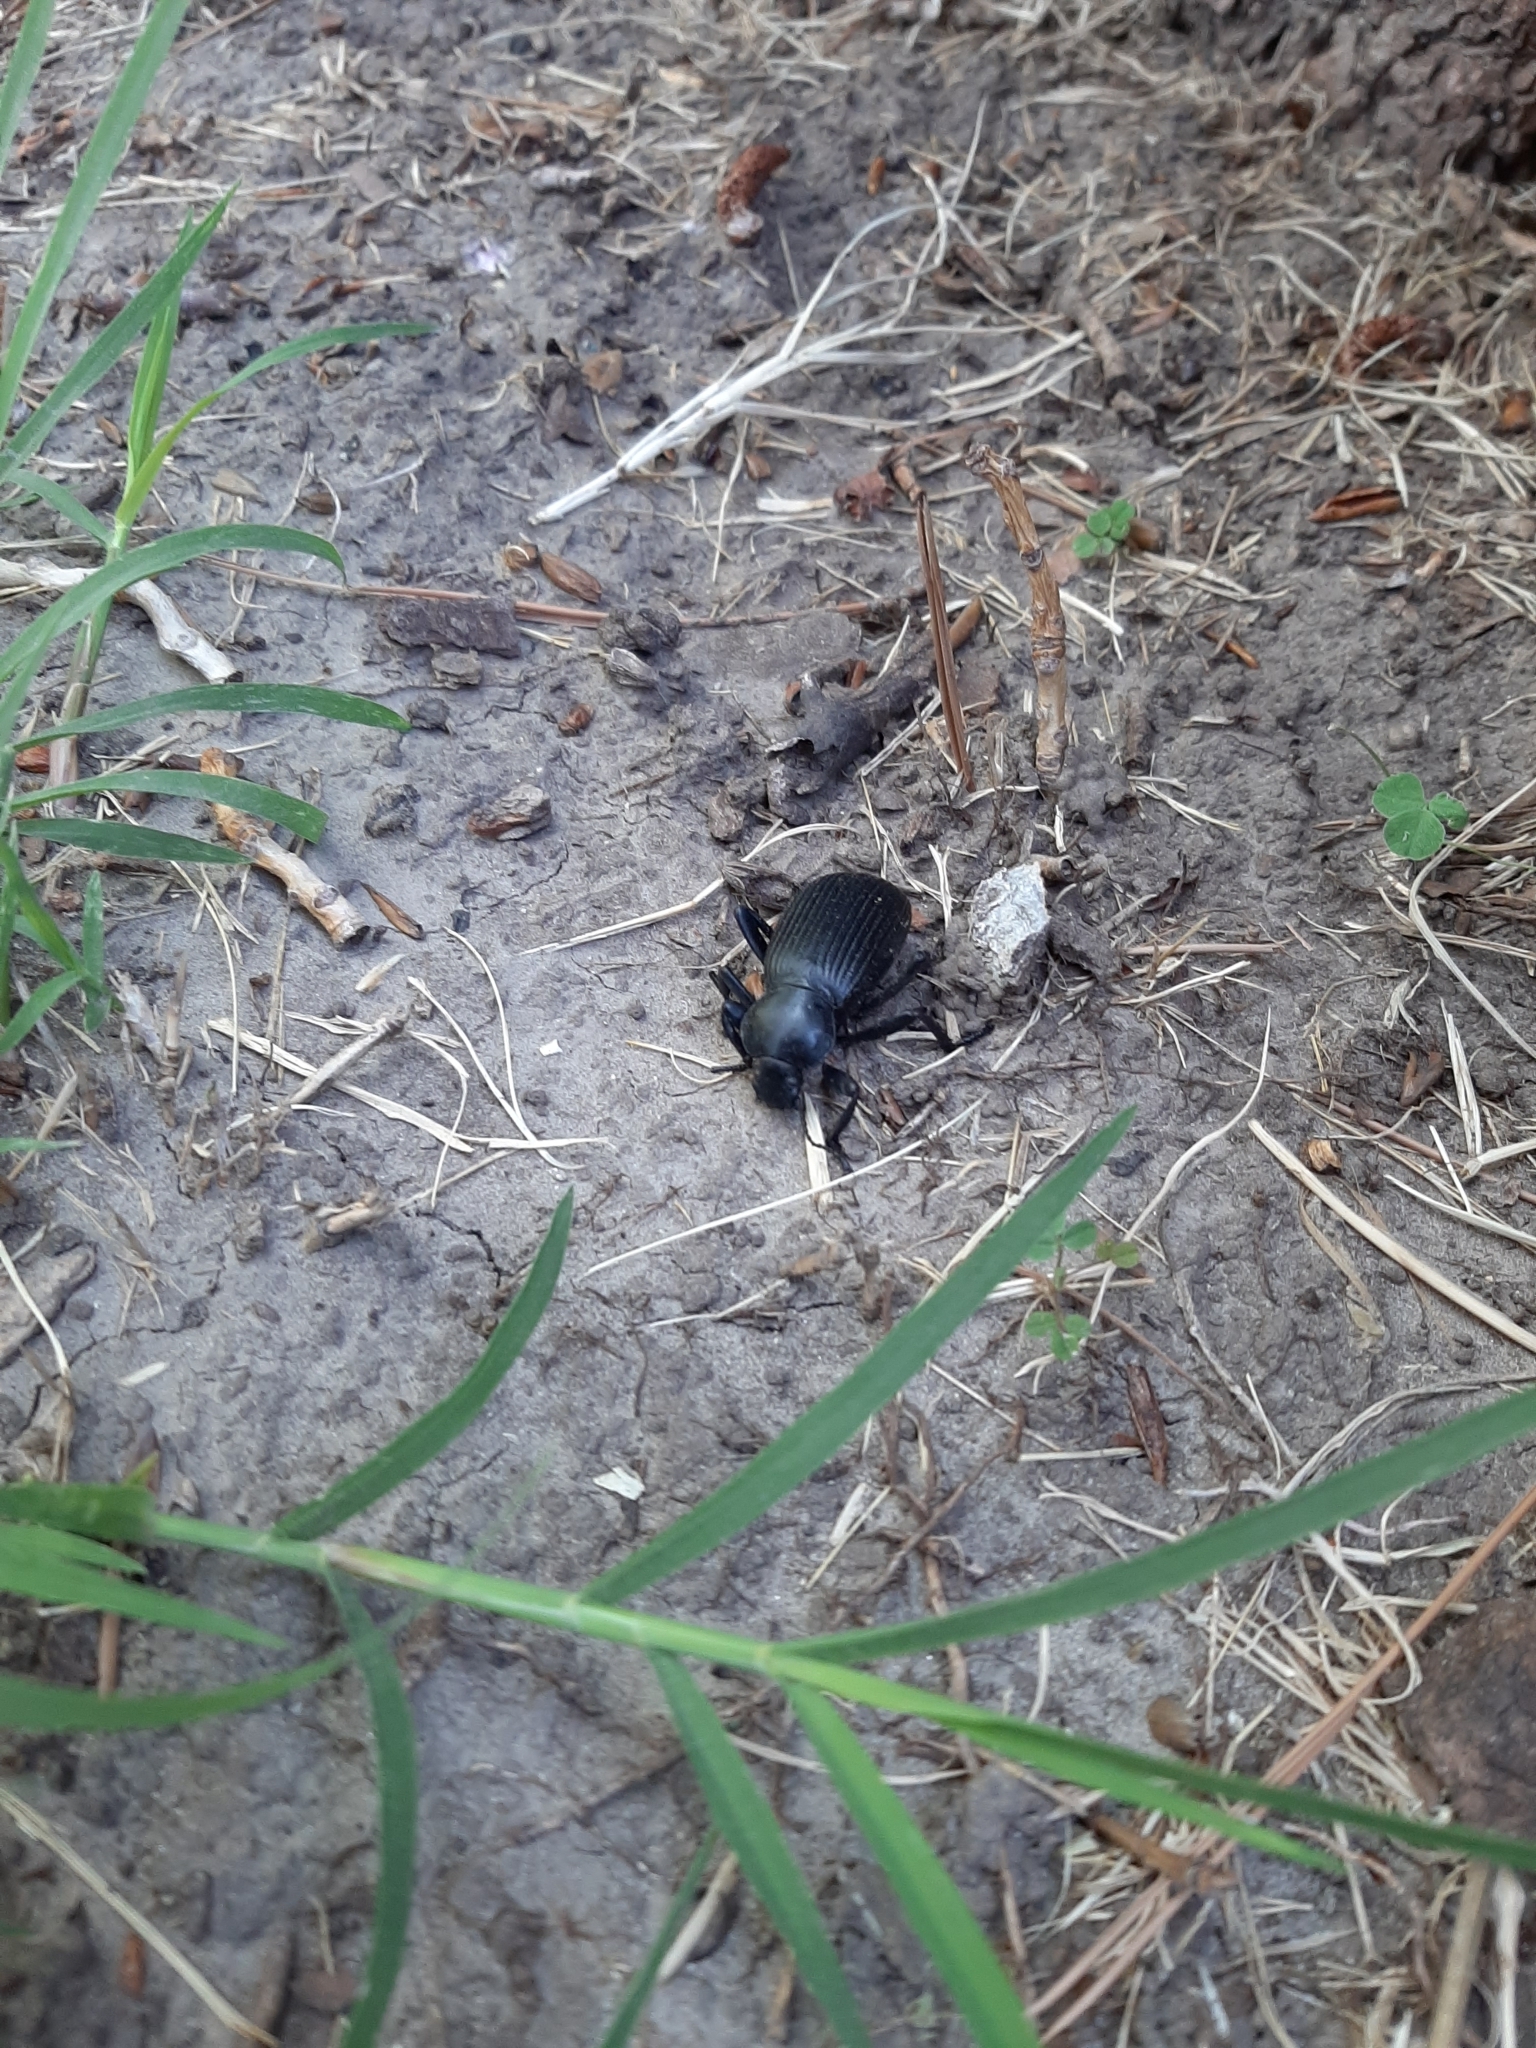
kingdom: Animalia
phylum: Arthropoda
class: Insecta
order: Coleoptera
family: Tenebrionidae
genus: Eleodes
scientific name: Eleodes obscura
